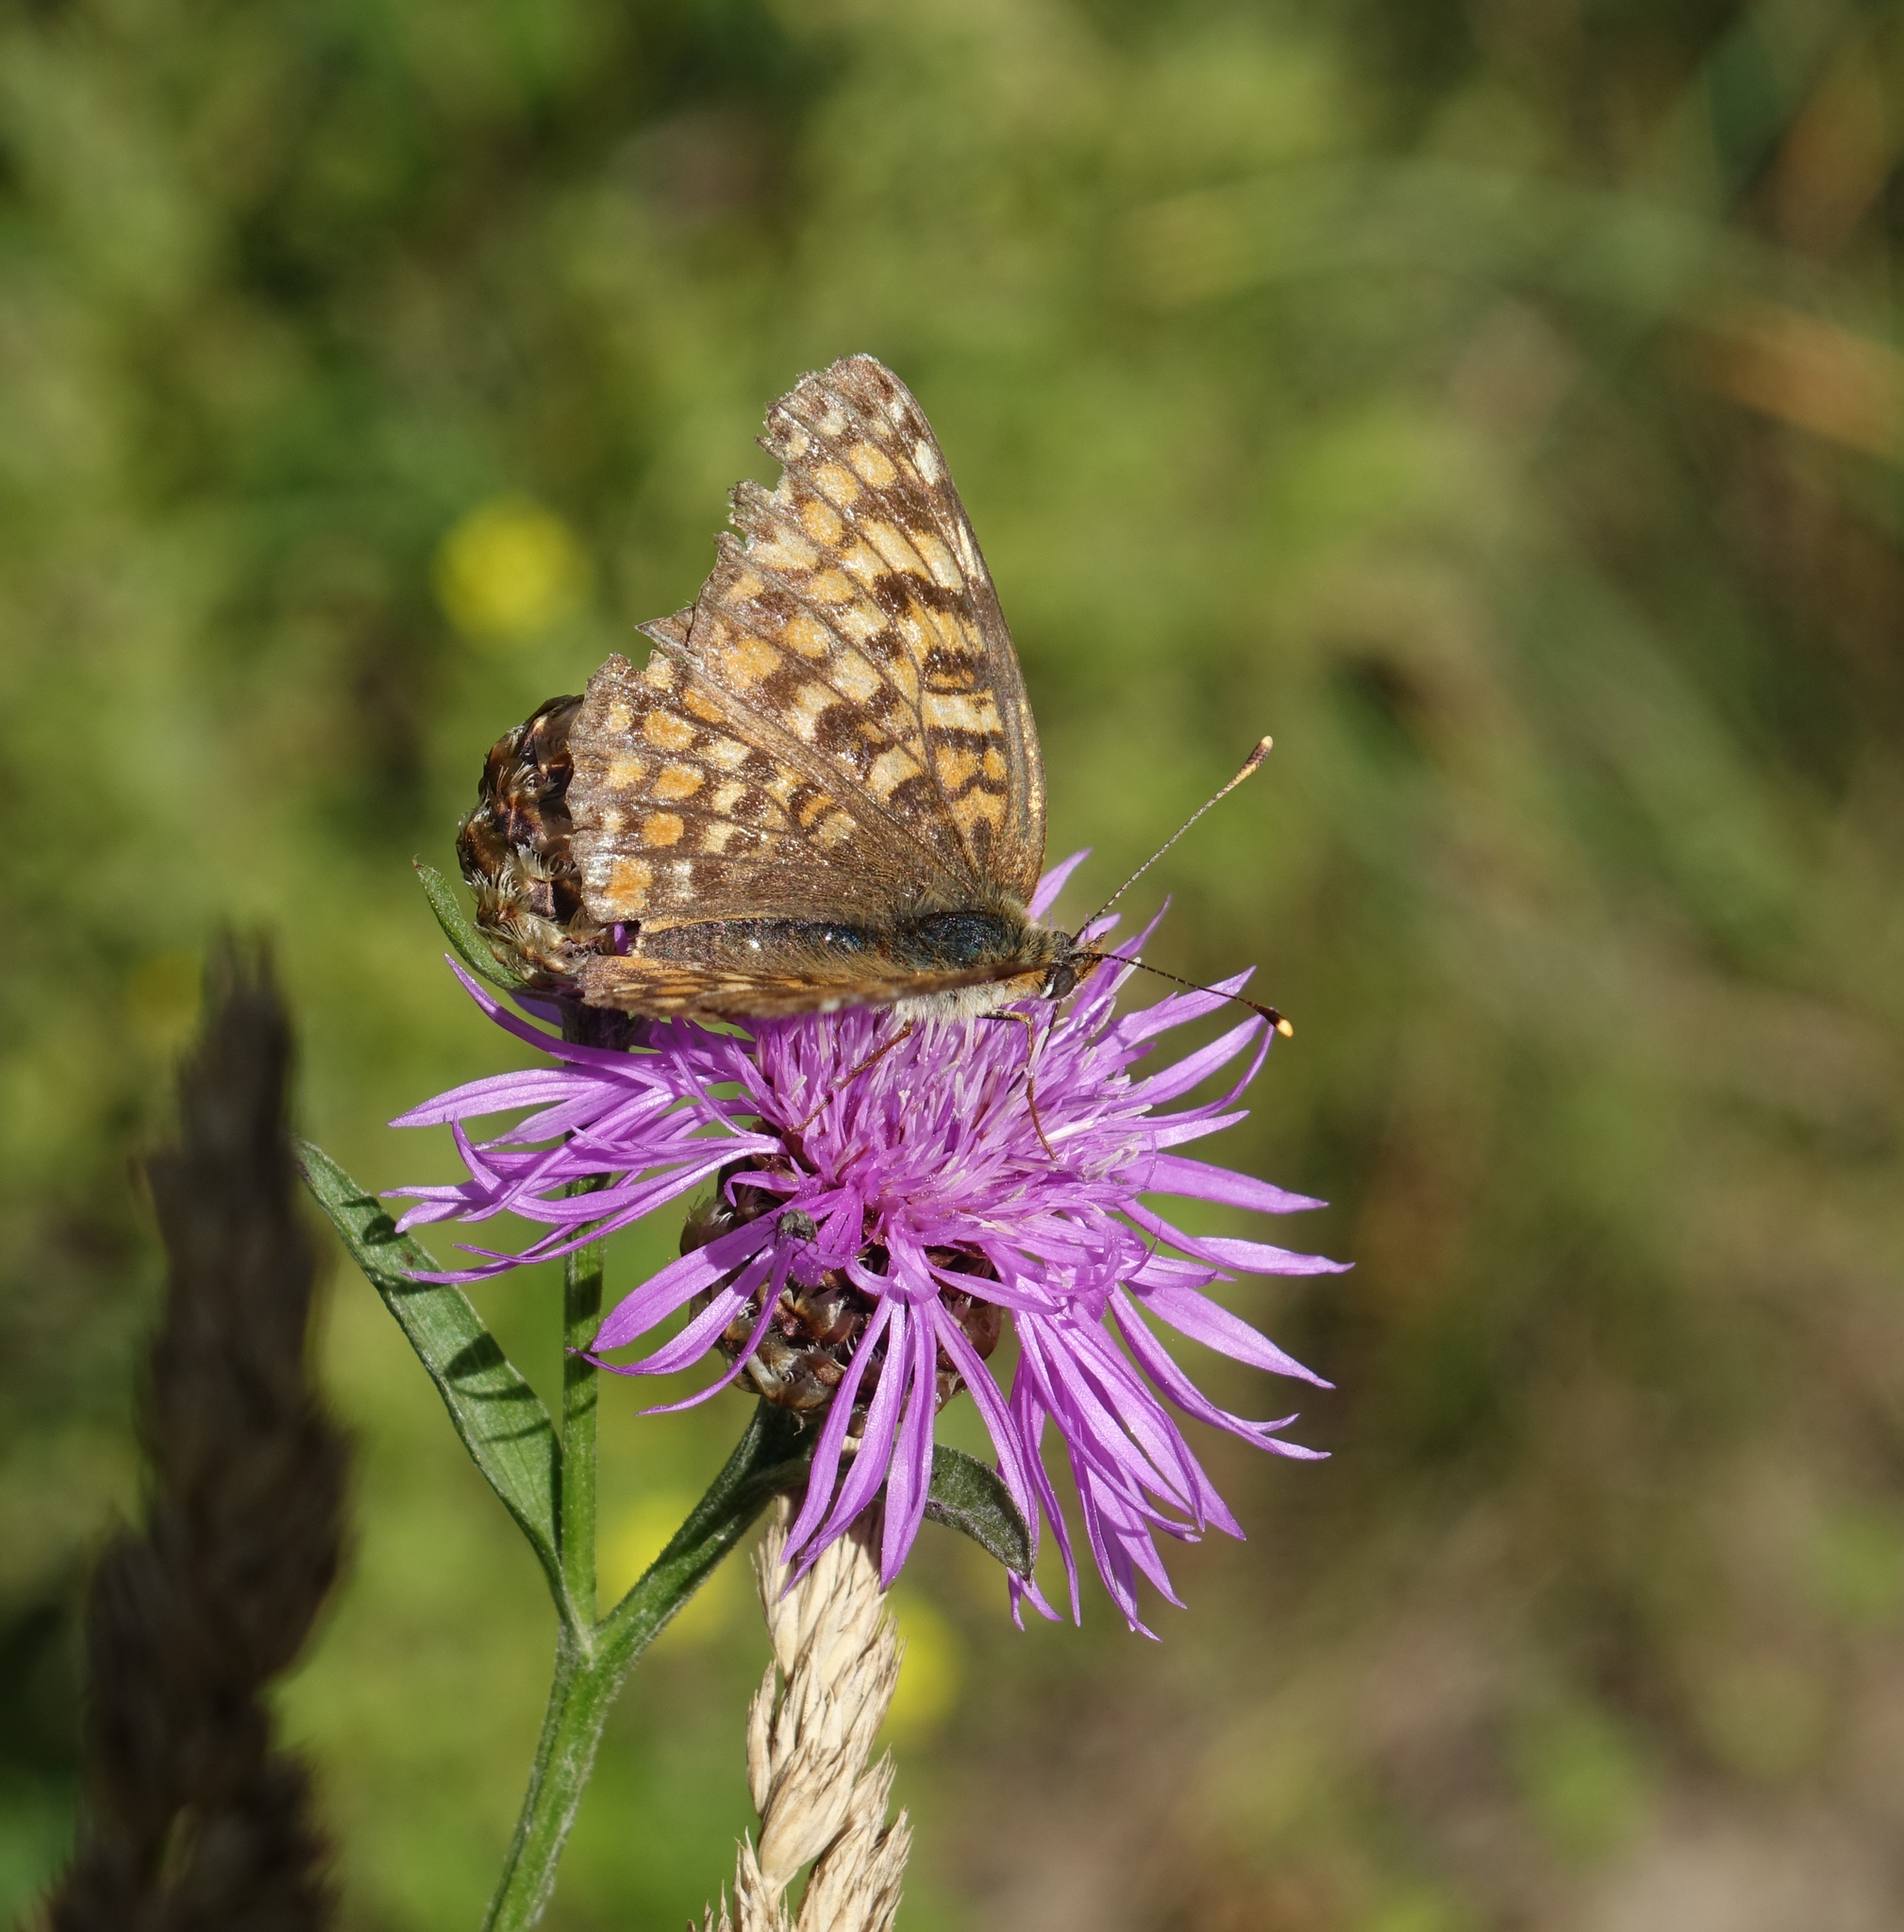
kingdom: Animalia
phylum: Arthropoda
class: Insecta
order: Lepidoptera
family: Nymphalidae
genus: Melitaea
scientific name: Melitaea phoebe
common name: Knapweed fritillary
